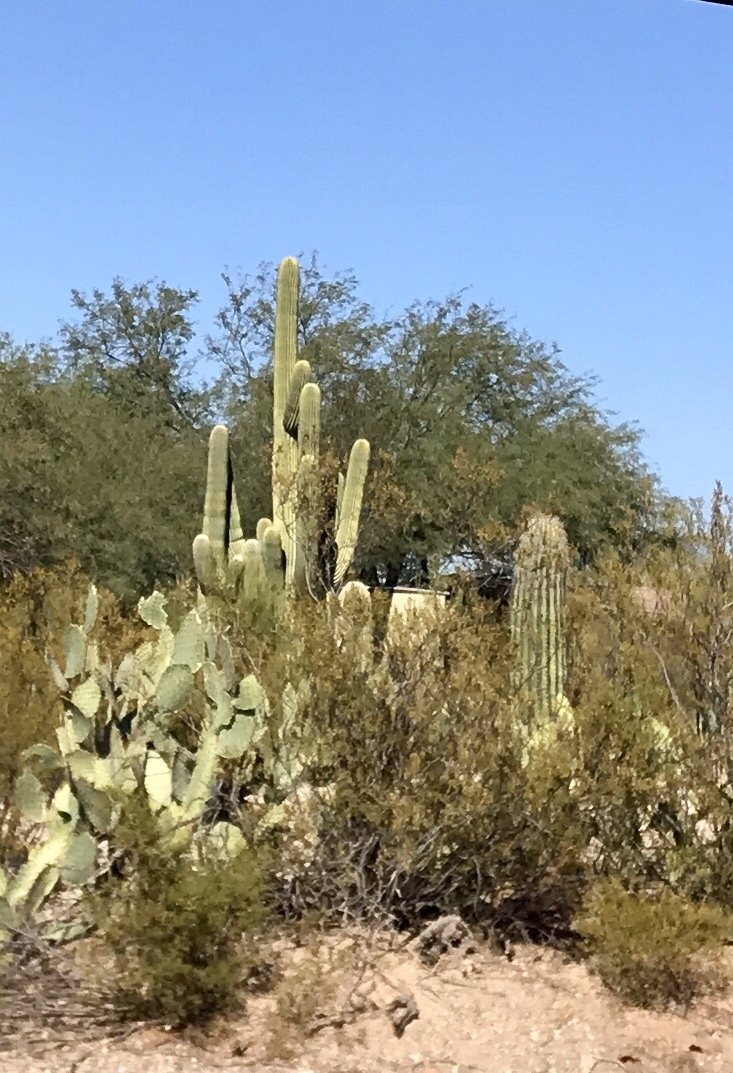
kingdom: Plantae
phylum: Tracheophyta
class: Magnoliopsida
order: Caryophyllales
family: Cactaceae
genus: Carnegiea
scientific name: Carnegiea gigantea
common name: Saguaro
